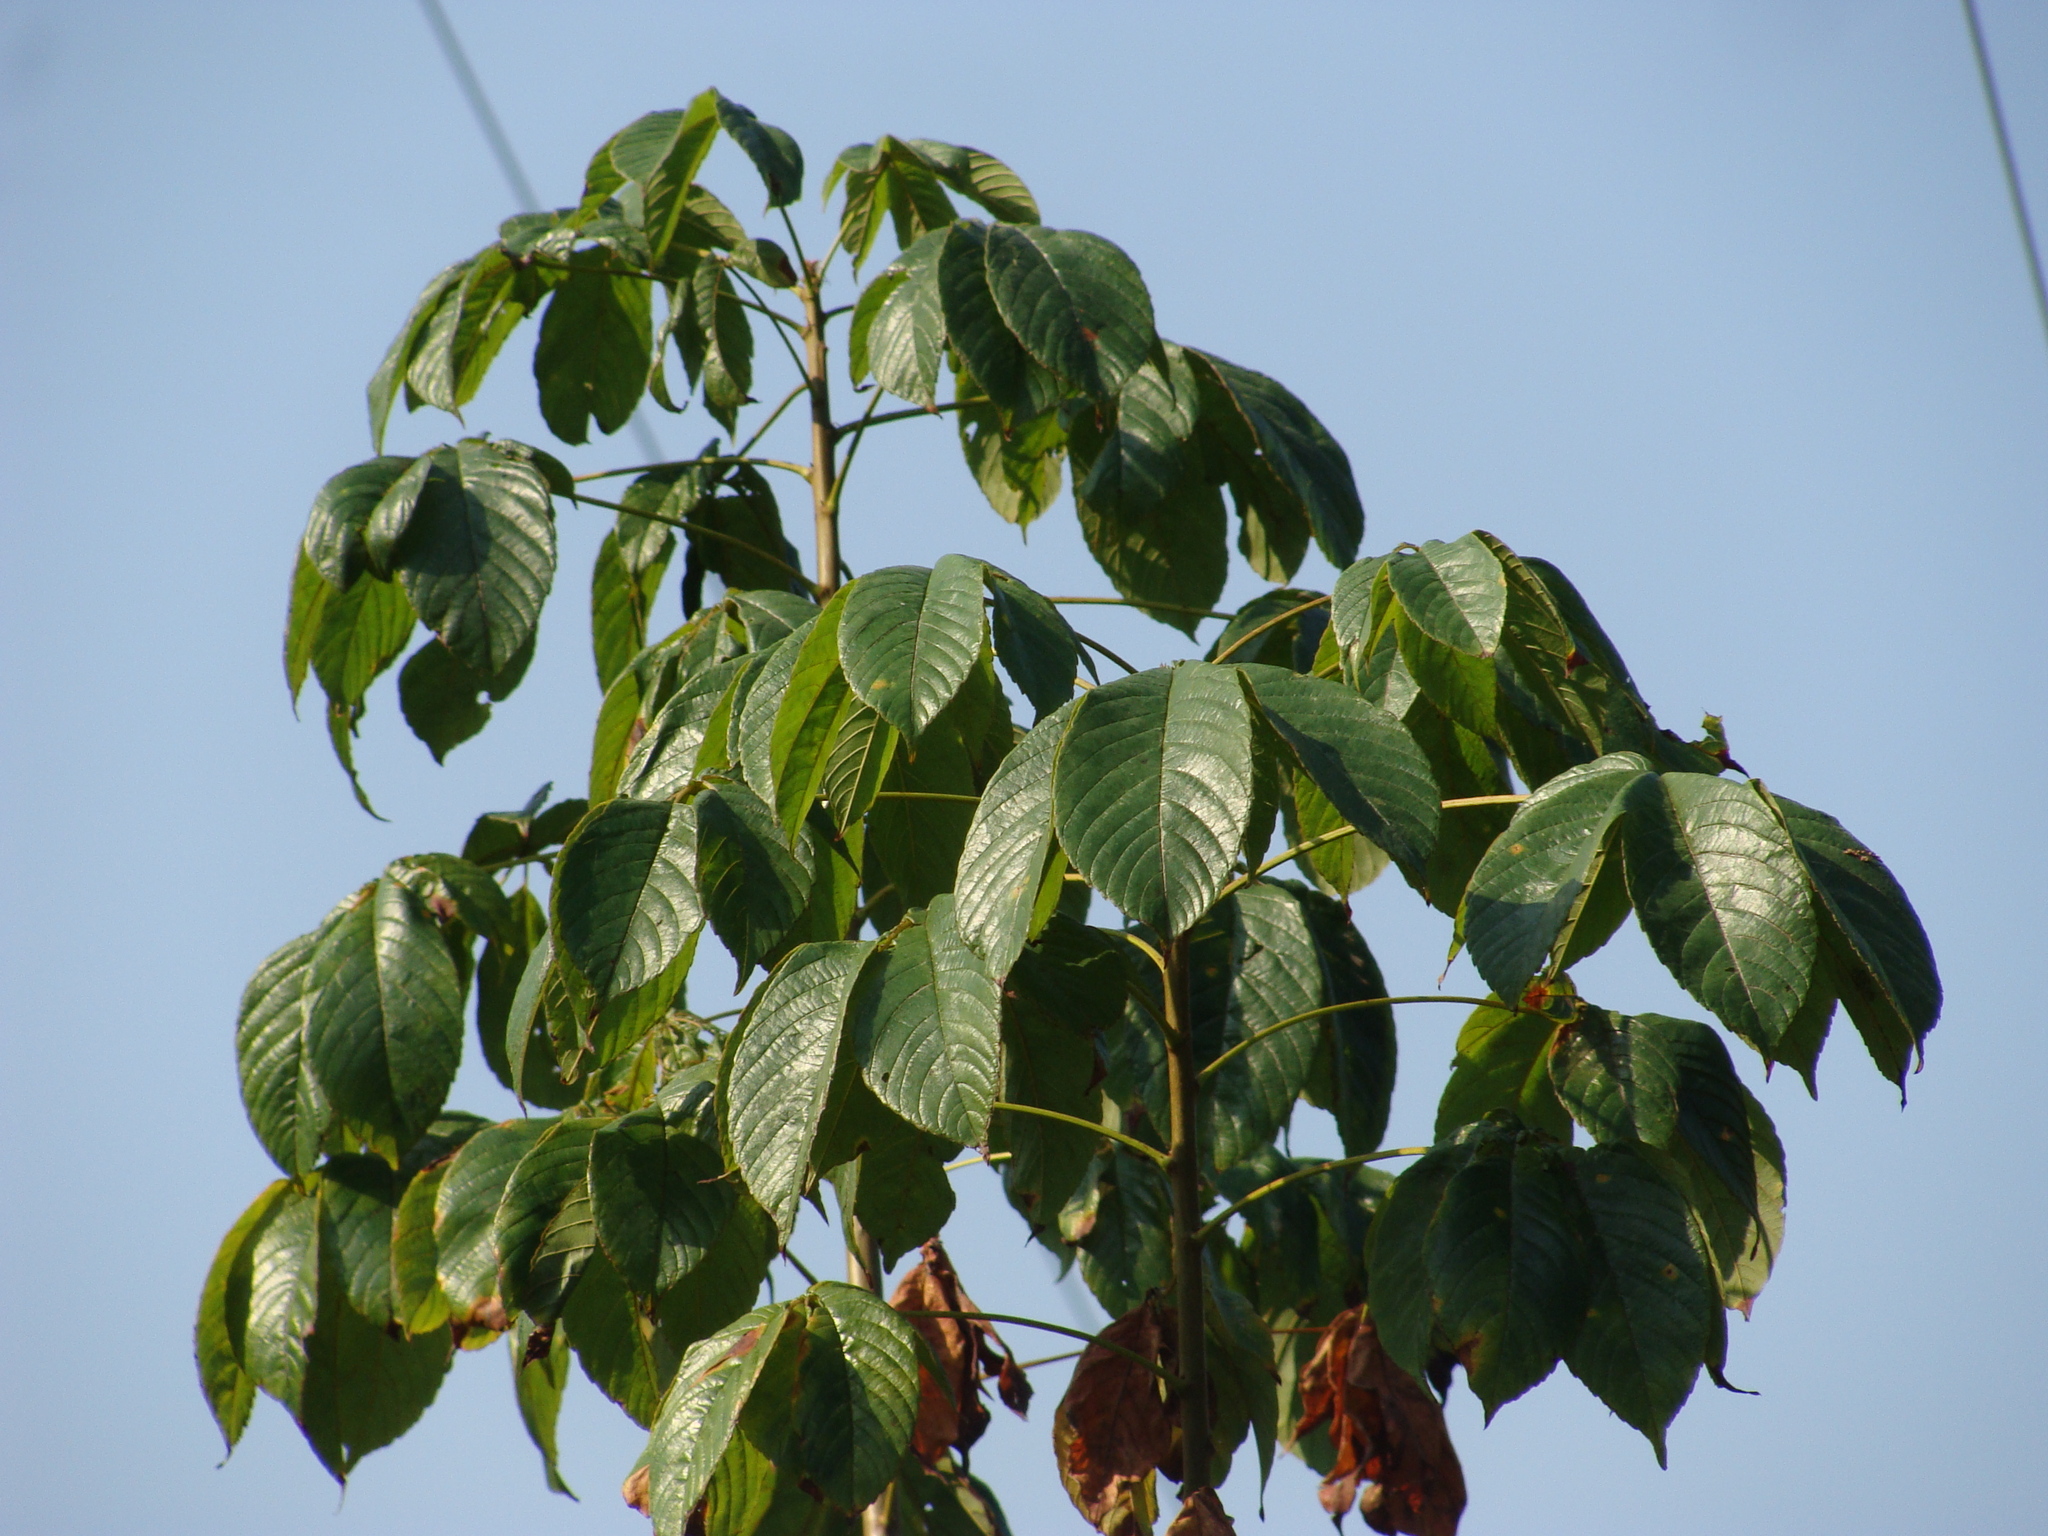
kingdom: Plantae
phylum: Tracheophyta
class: Magnoliopsida
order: Malvales
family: Cochlospermaceae
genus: Cochlospermum
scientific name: Cochlospermum vitifolium
